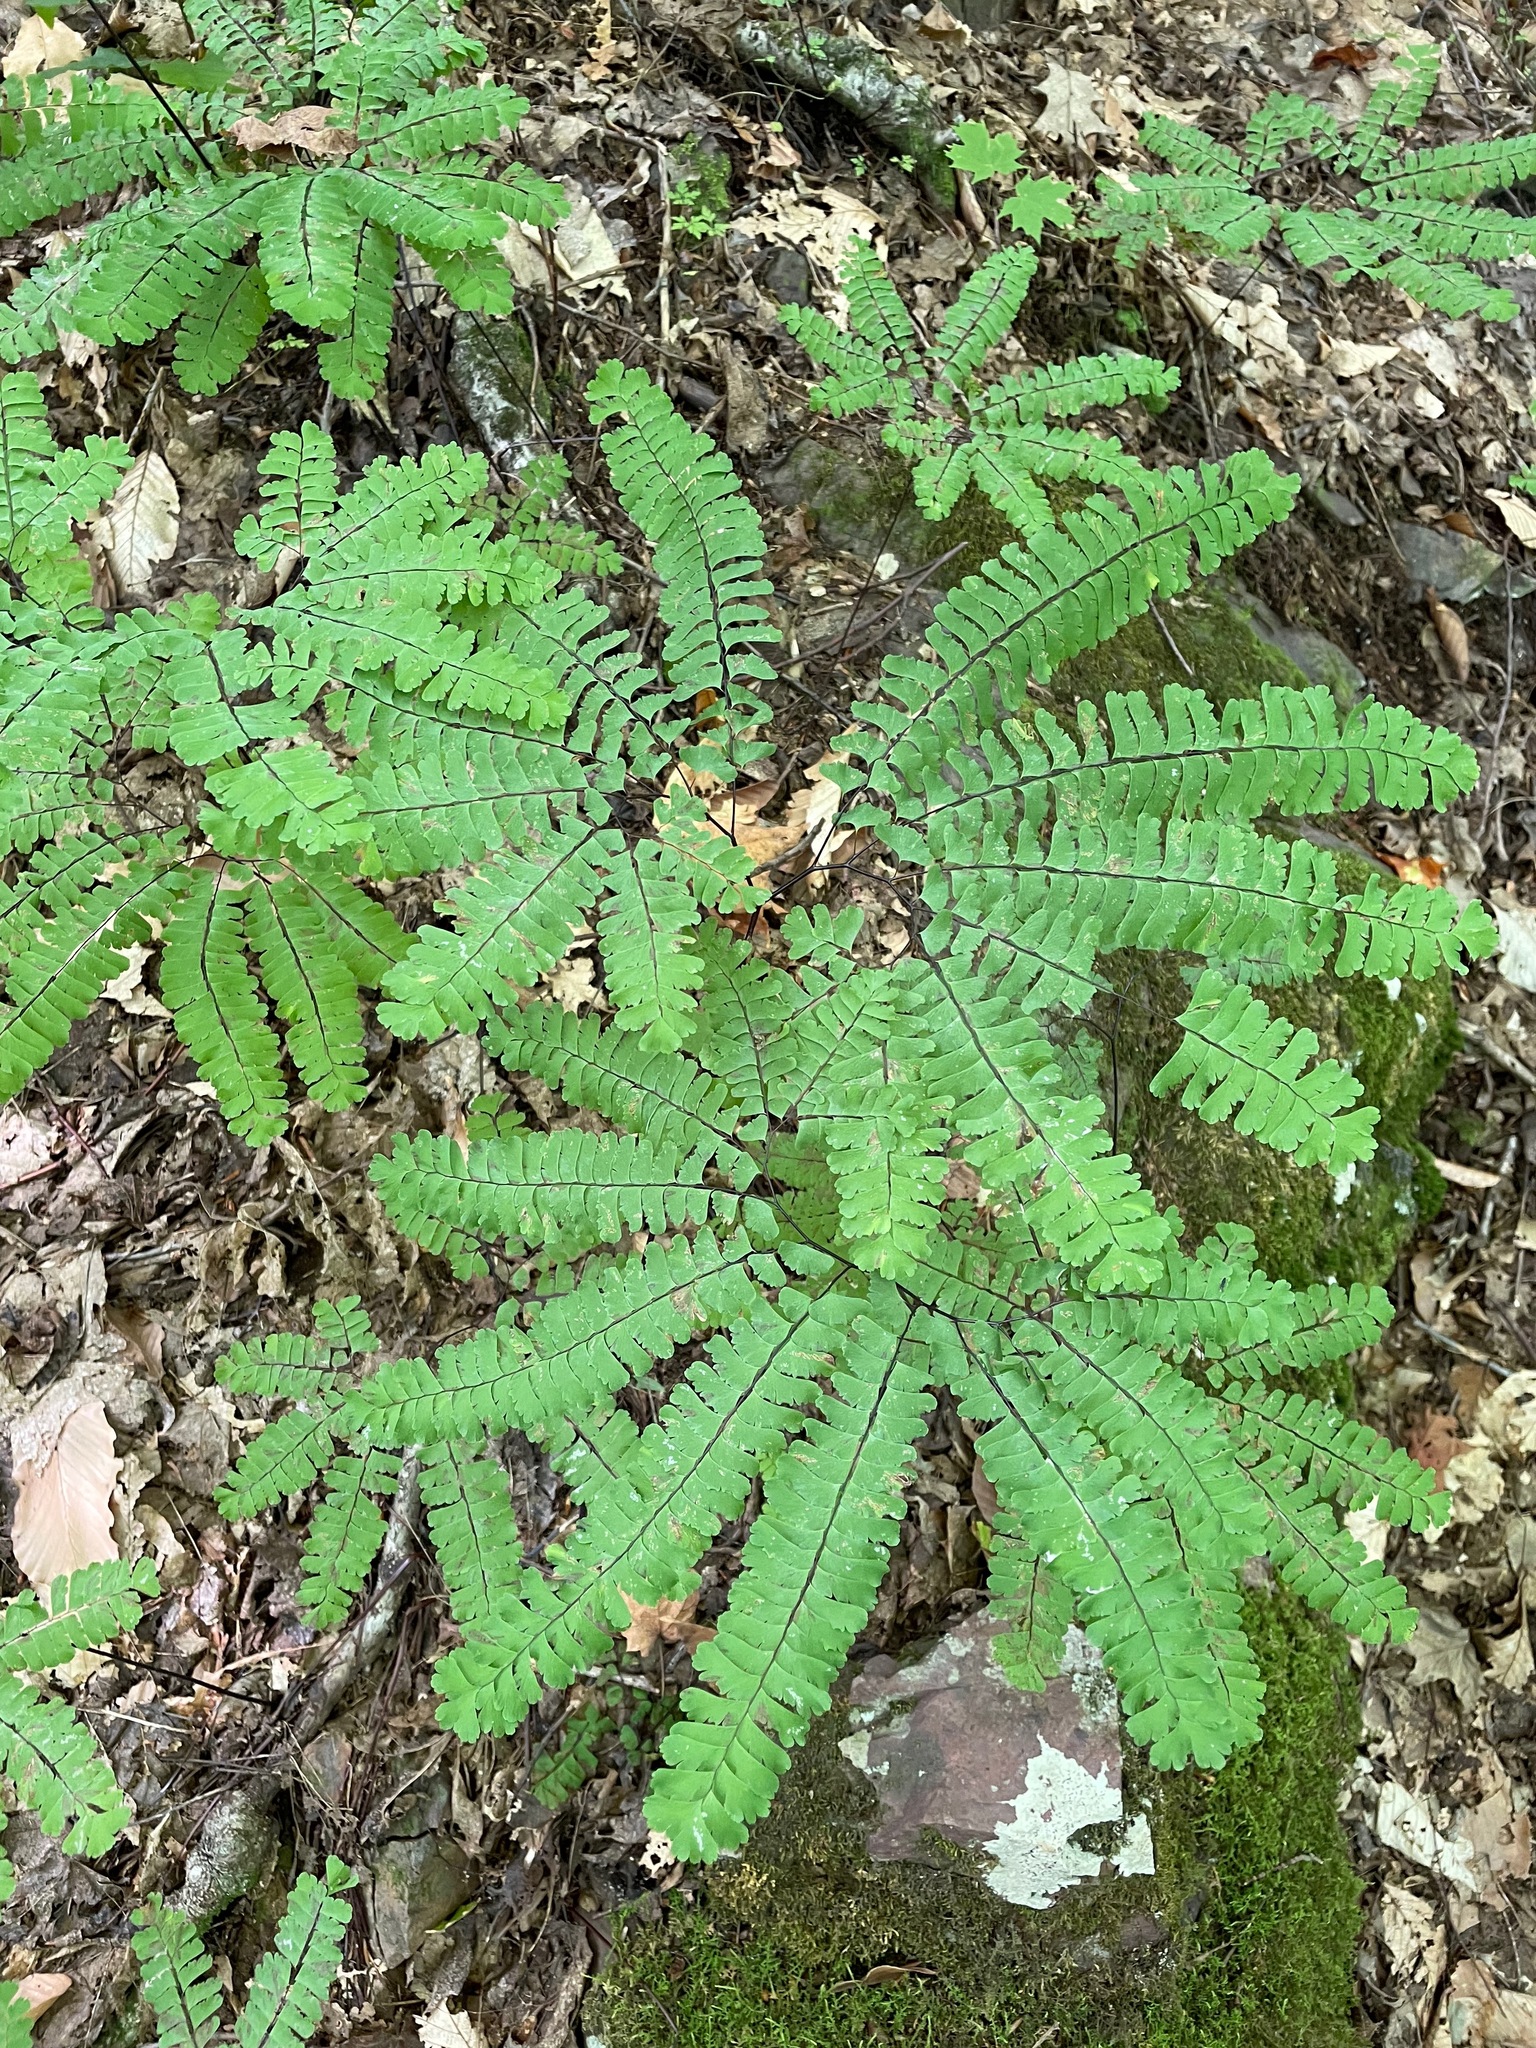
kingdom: Plantae
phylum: Tracheophyta
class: Polypodiopsida
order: Polypodiales
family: Pteridaceae
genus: Adiantum
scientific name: Adiantum pedatum
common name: Five-finger fern
